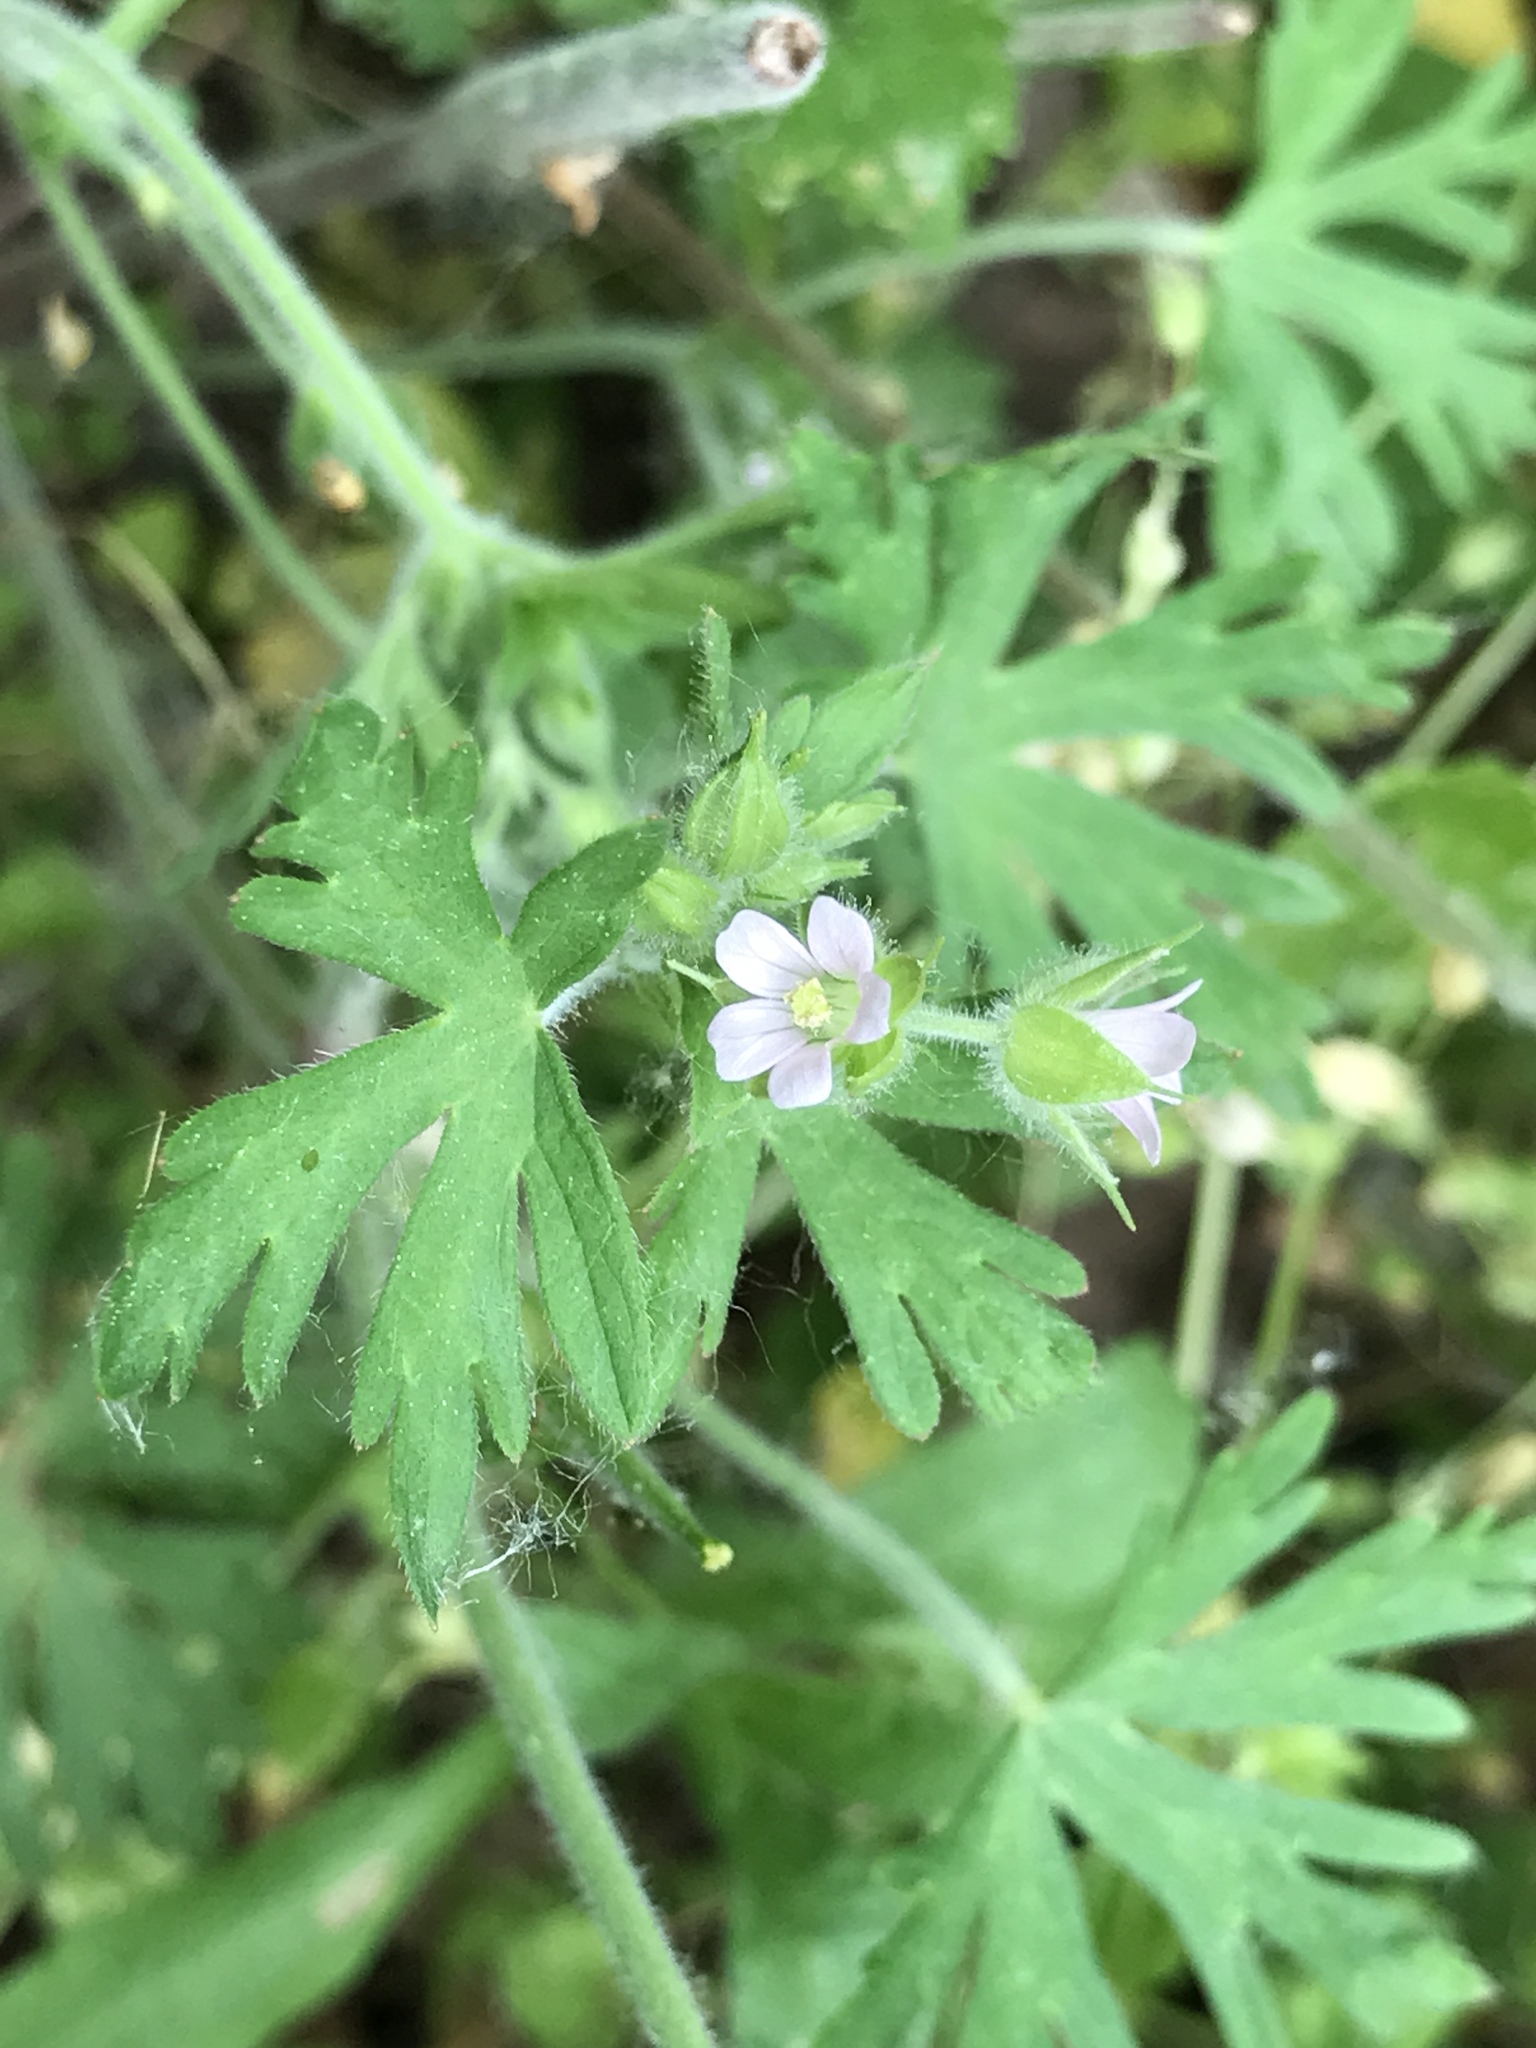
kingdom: Plantae
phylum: Tracheophyta
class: Magnoliopsida
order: Geraniales
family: Geraniaceae
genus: Geranium
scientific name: Geranium carolinianum
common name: Carolina crane's-bill
